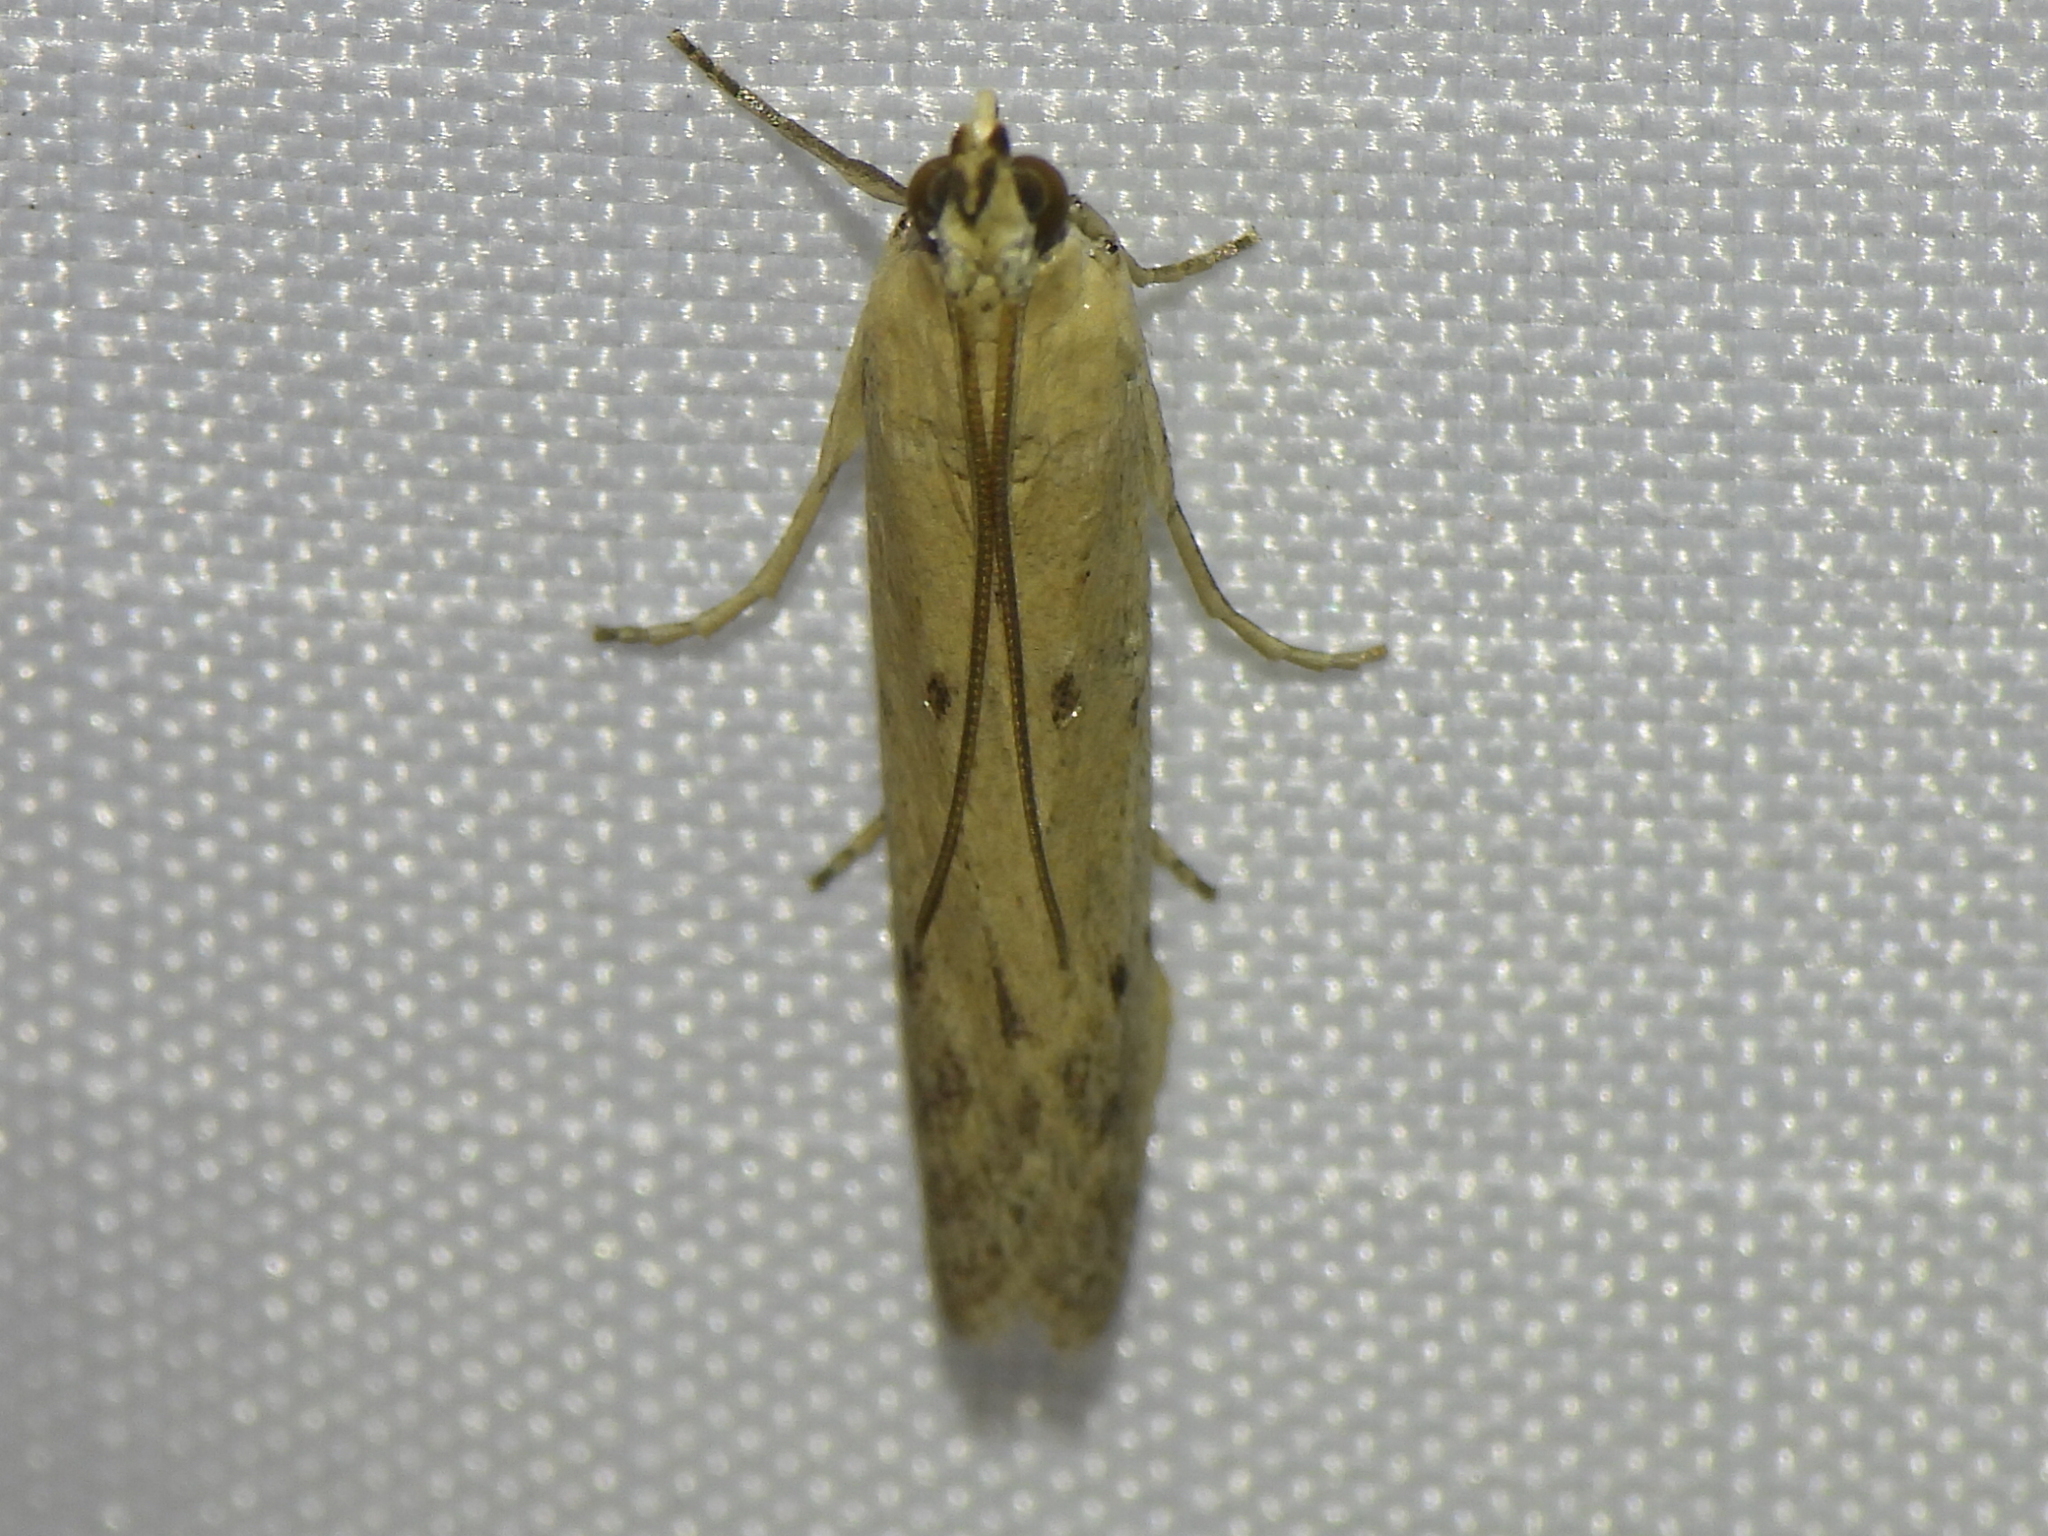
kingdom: Animalia
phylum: Arthropoda
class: Insecta
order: Lepidoptera
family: Pyralidae
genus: Homoeosoma
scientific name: Homoeosoma electella
